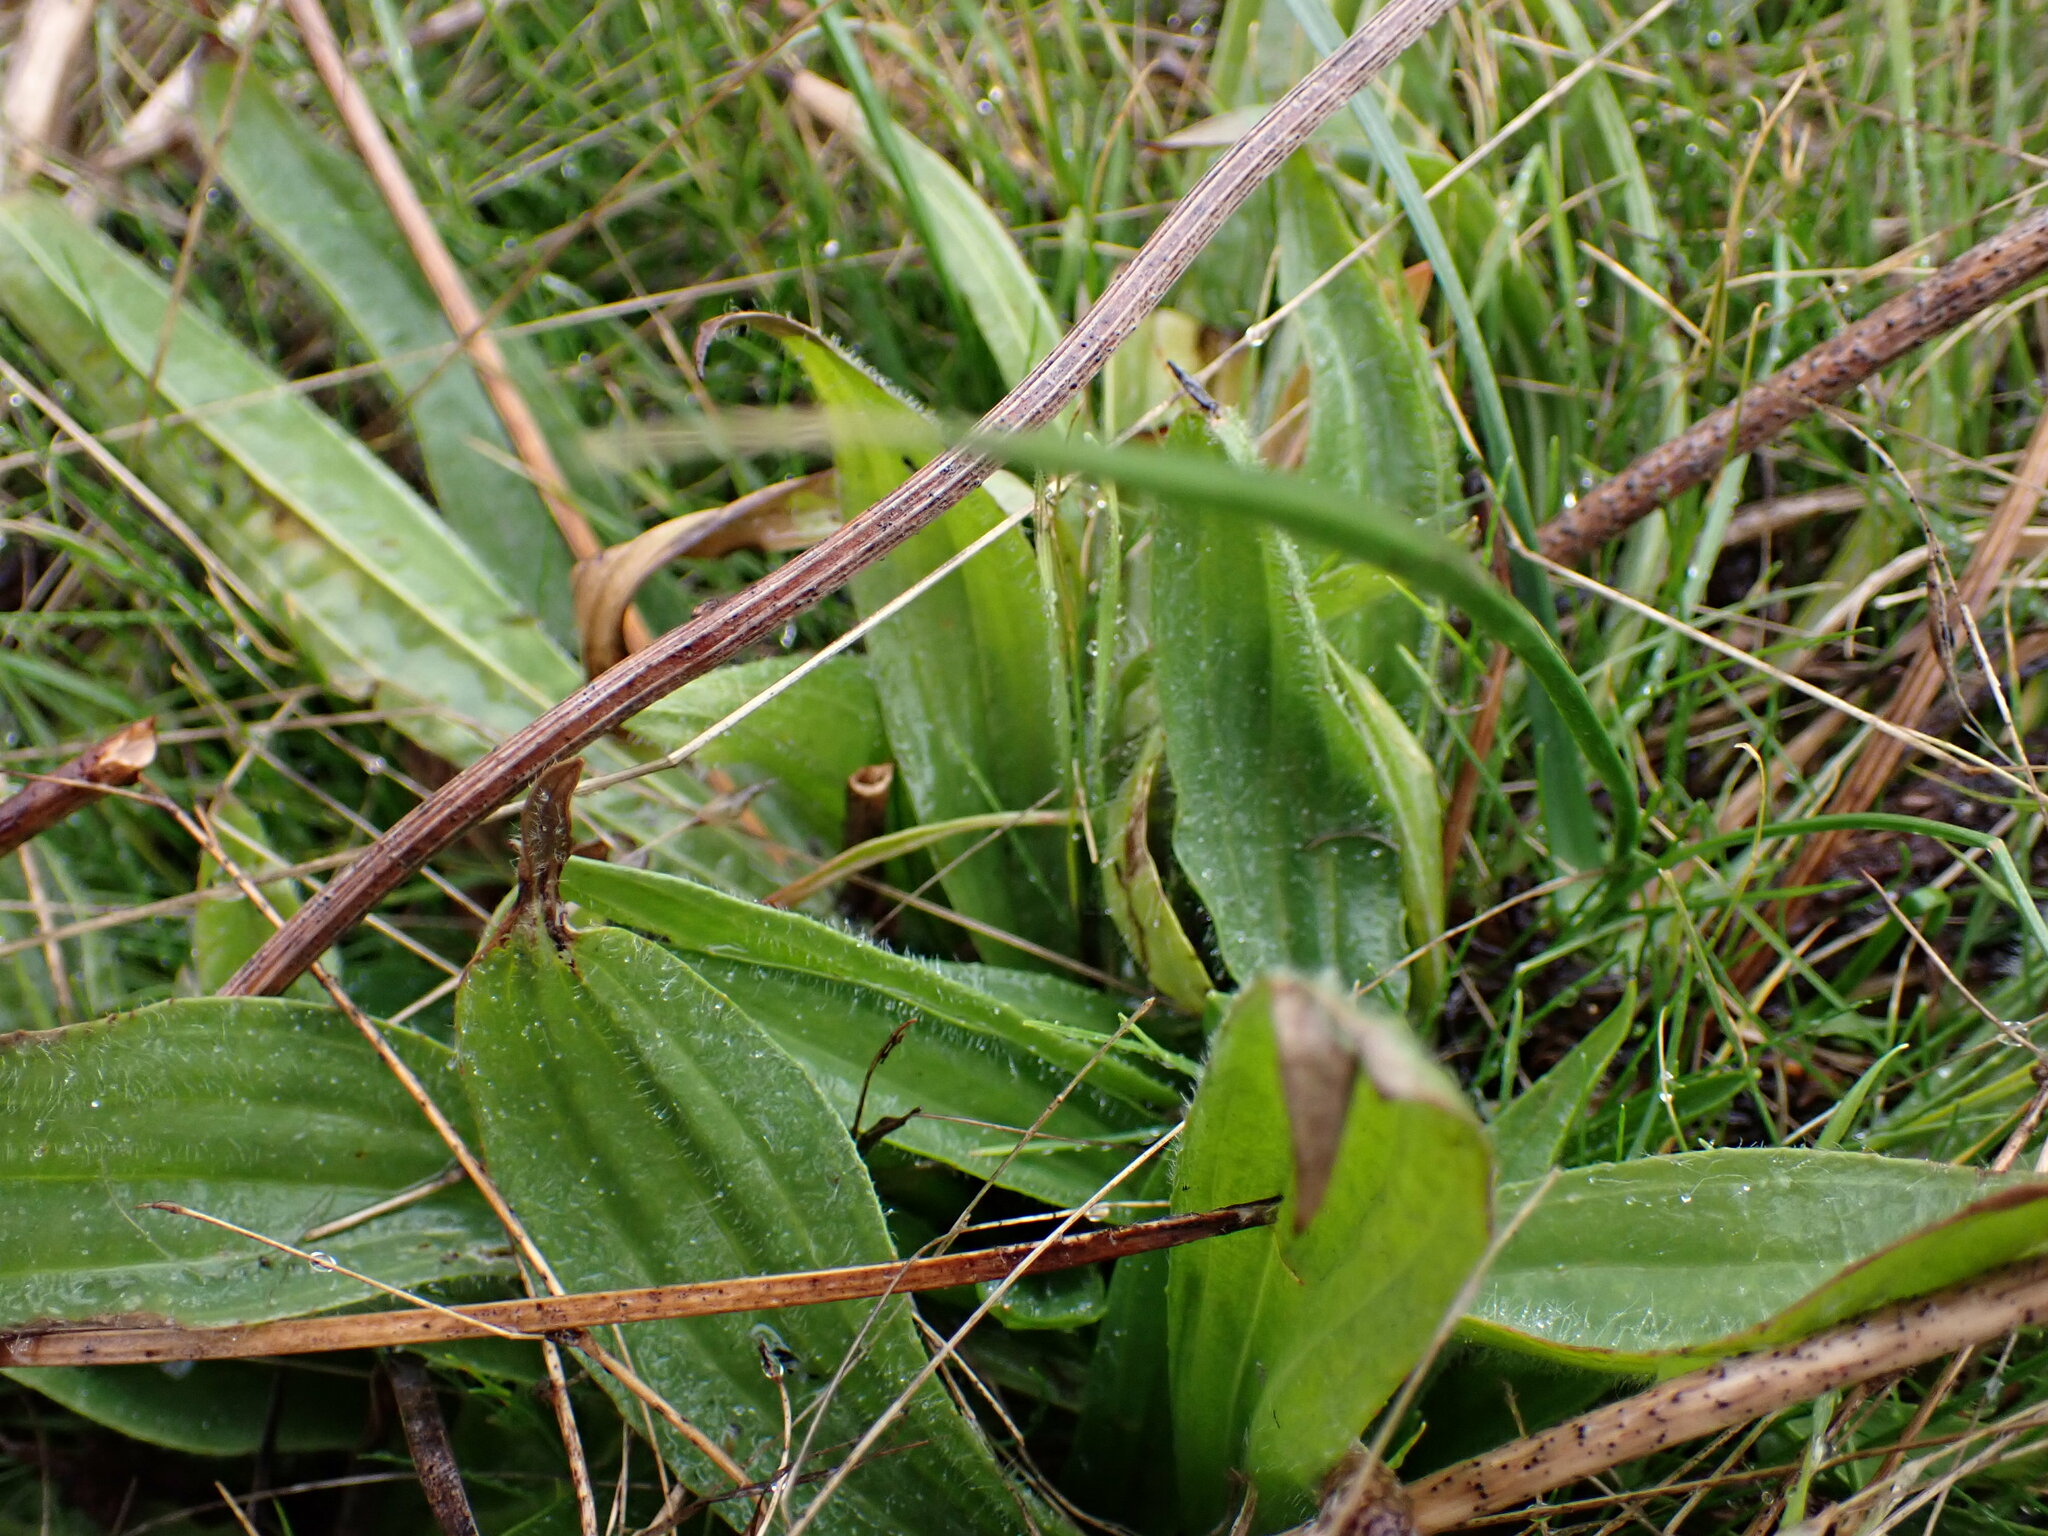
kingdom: Plantae
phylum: Tracheophyta
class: Magnoliopsida
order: Lamiales
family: Plantaginaceae
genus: Plantago
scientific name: Plantago lanceolata
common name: Ribwort plantain
